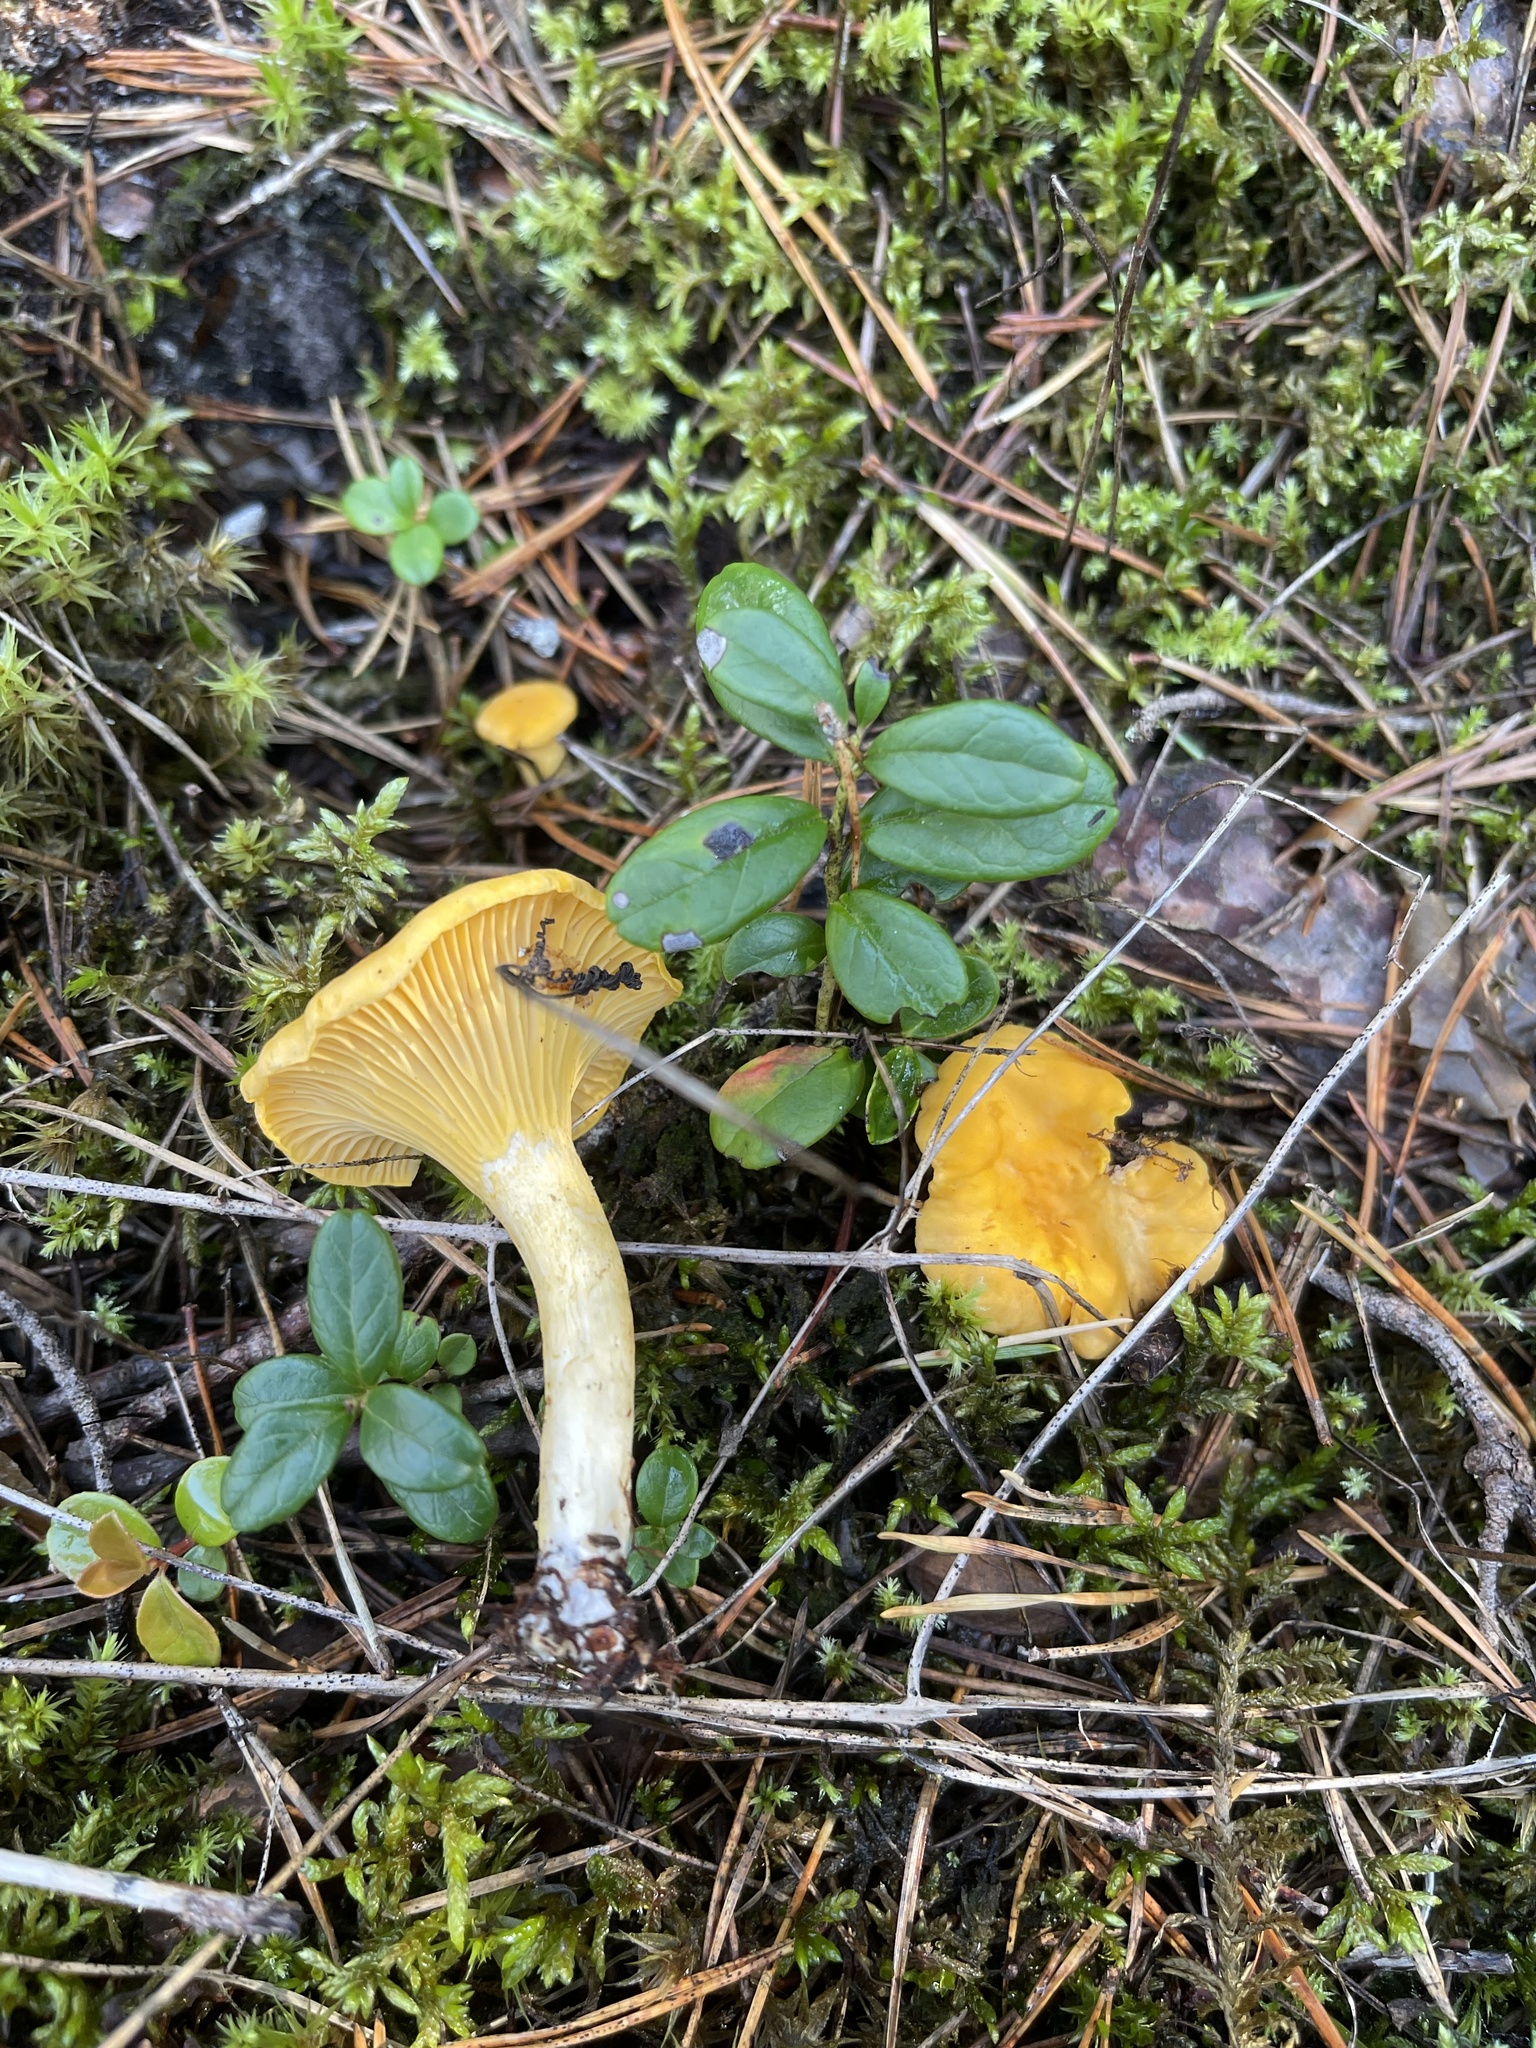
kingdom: Fungi
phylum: Basidiomycota
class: Agaricomycetes
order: Cantharellales
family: Hydnaceae
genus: Cantharellus
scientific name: Cantharellus cibarius
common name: Chanterelle
